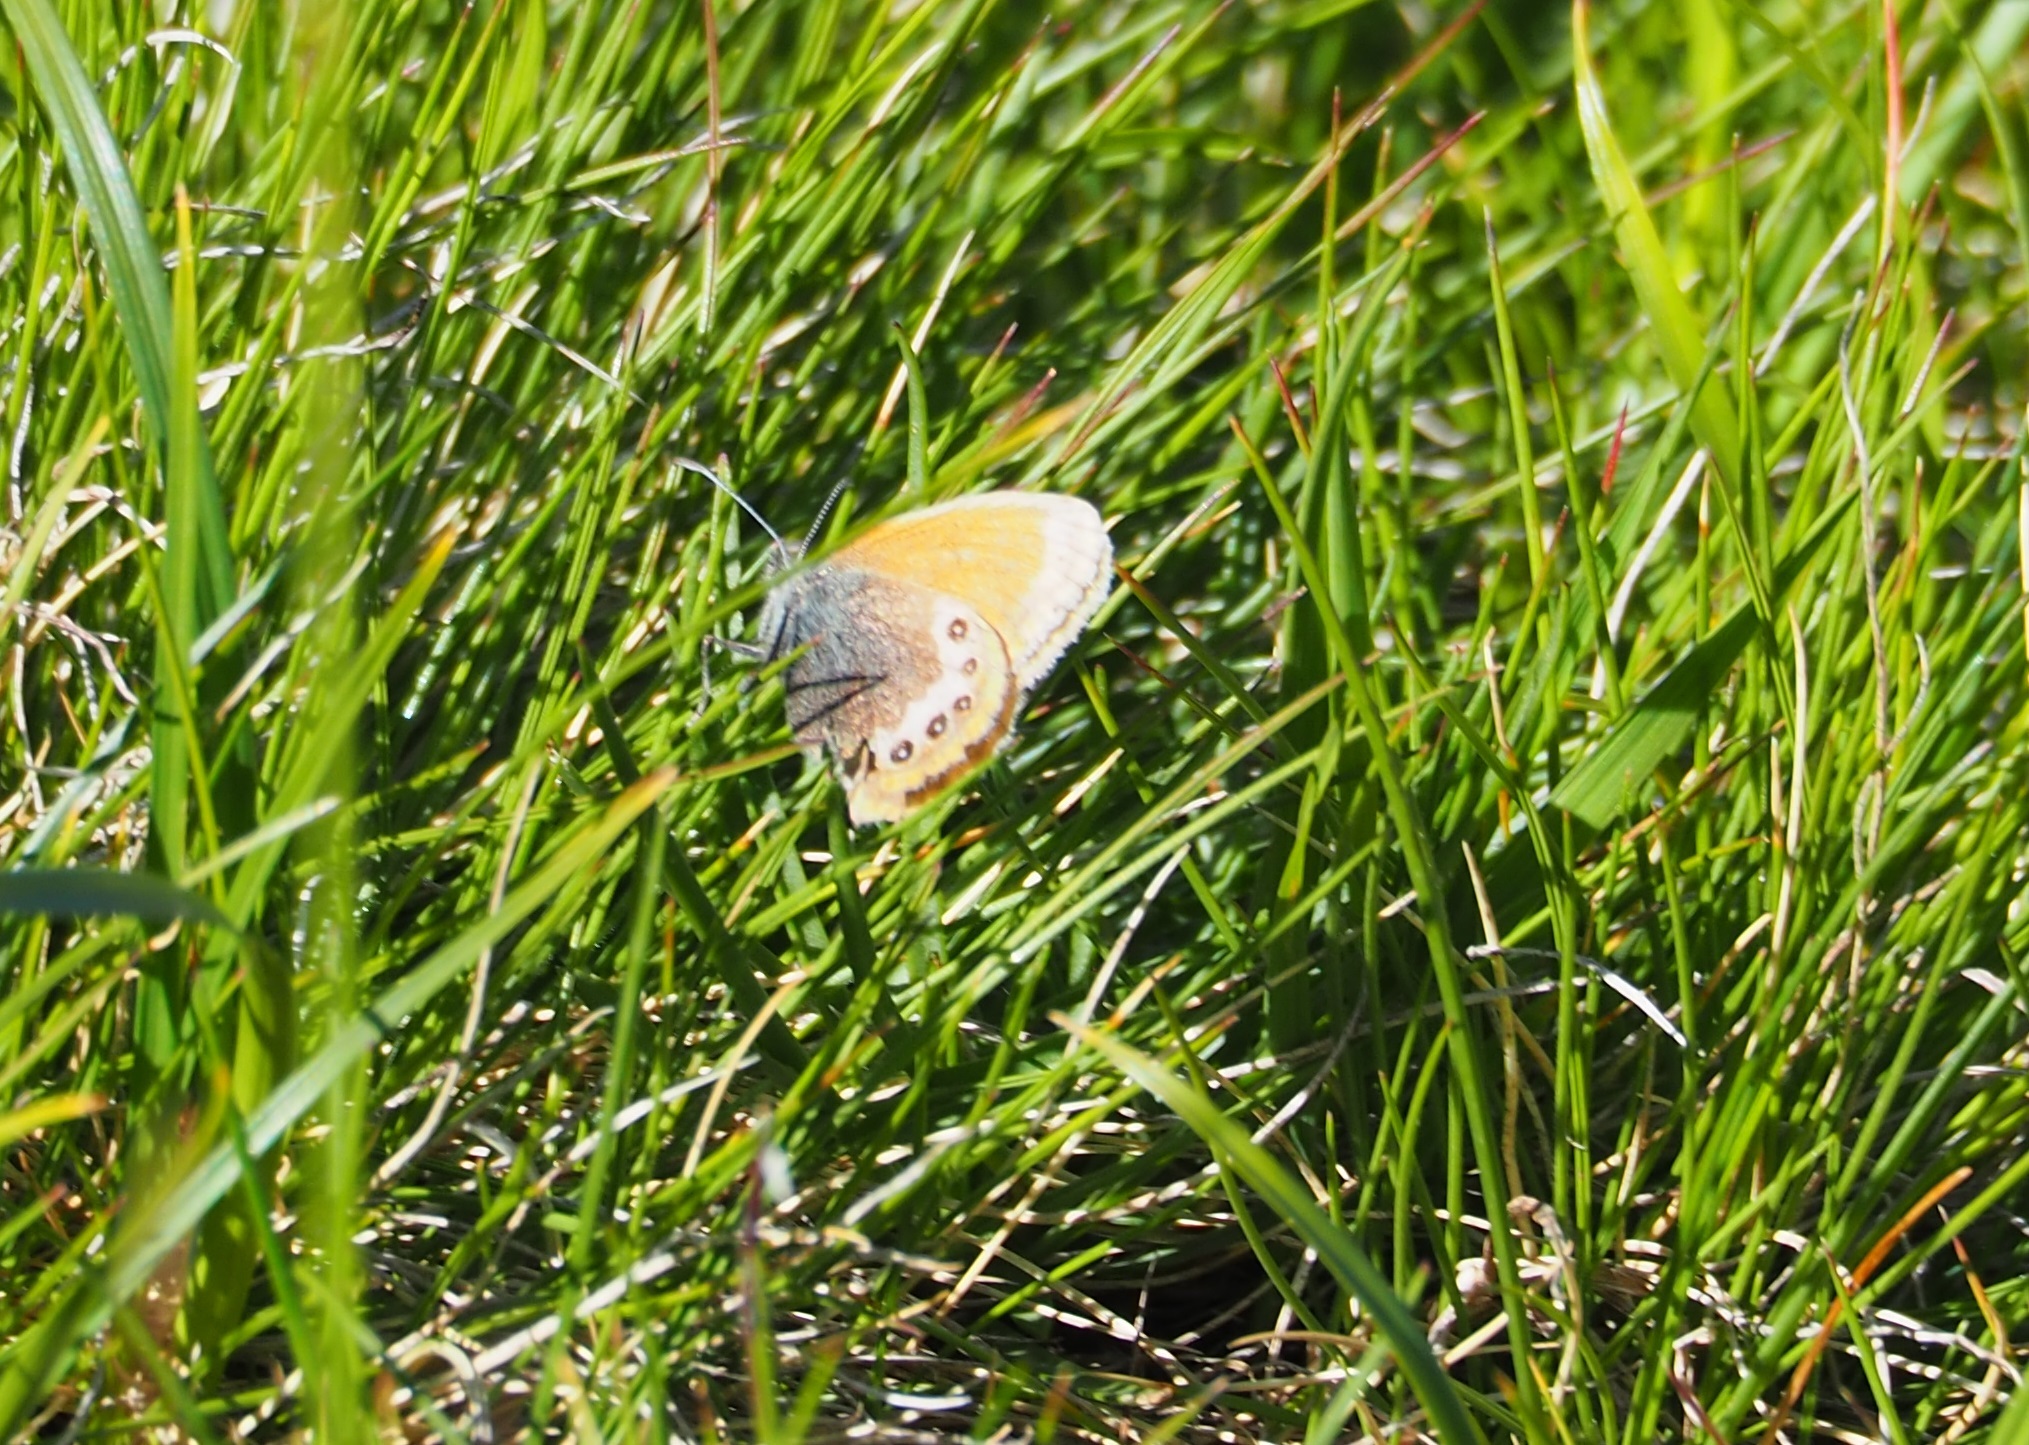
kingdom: Animalia
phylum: Arthropoda
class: Insecta
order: Lepidoptera
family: Nymphalidae
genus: Coenonympha
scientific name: Coenonympha
